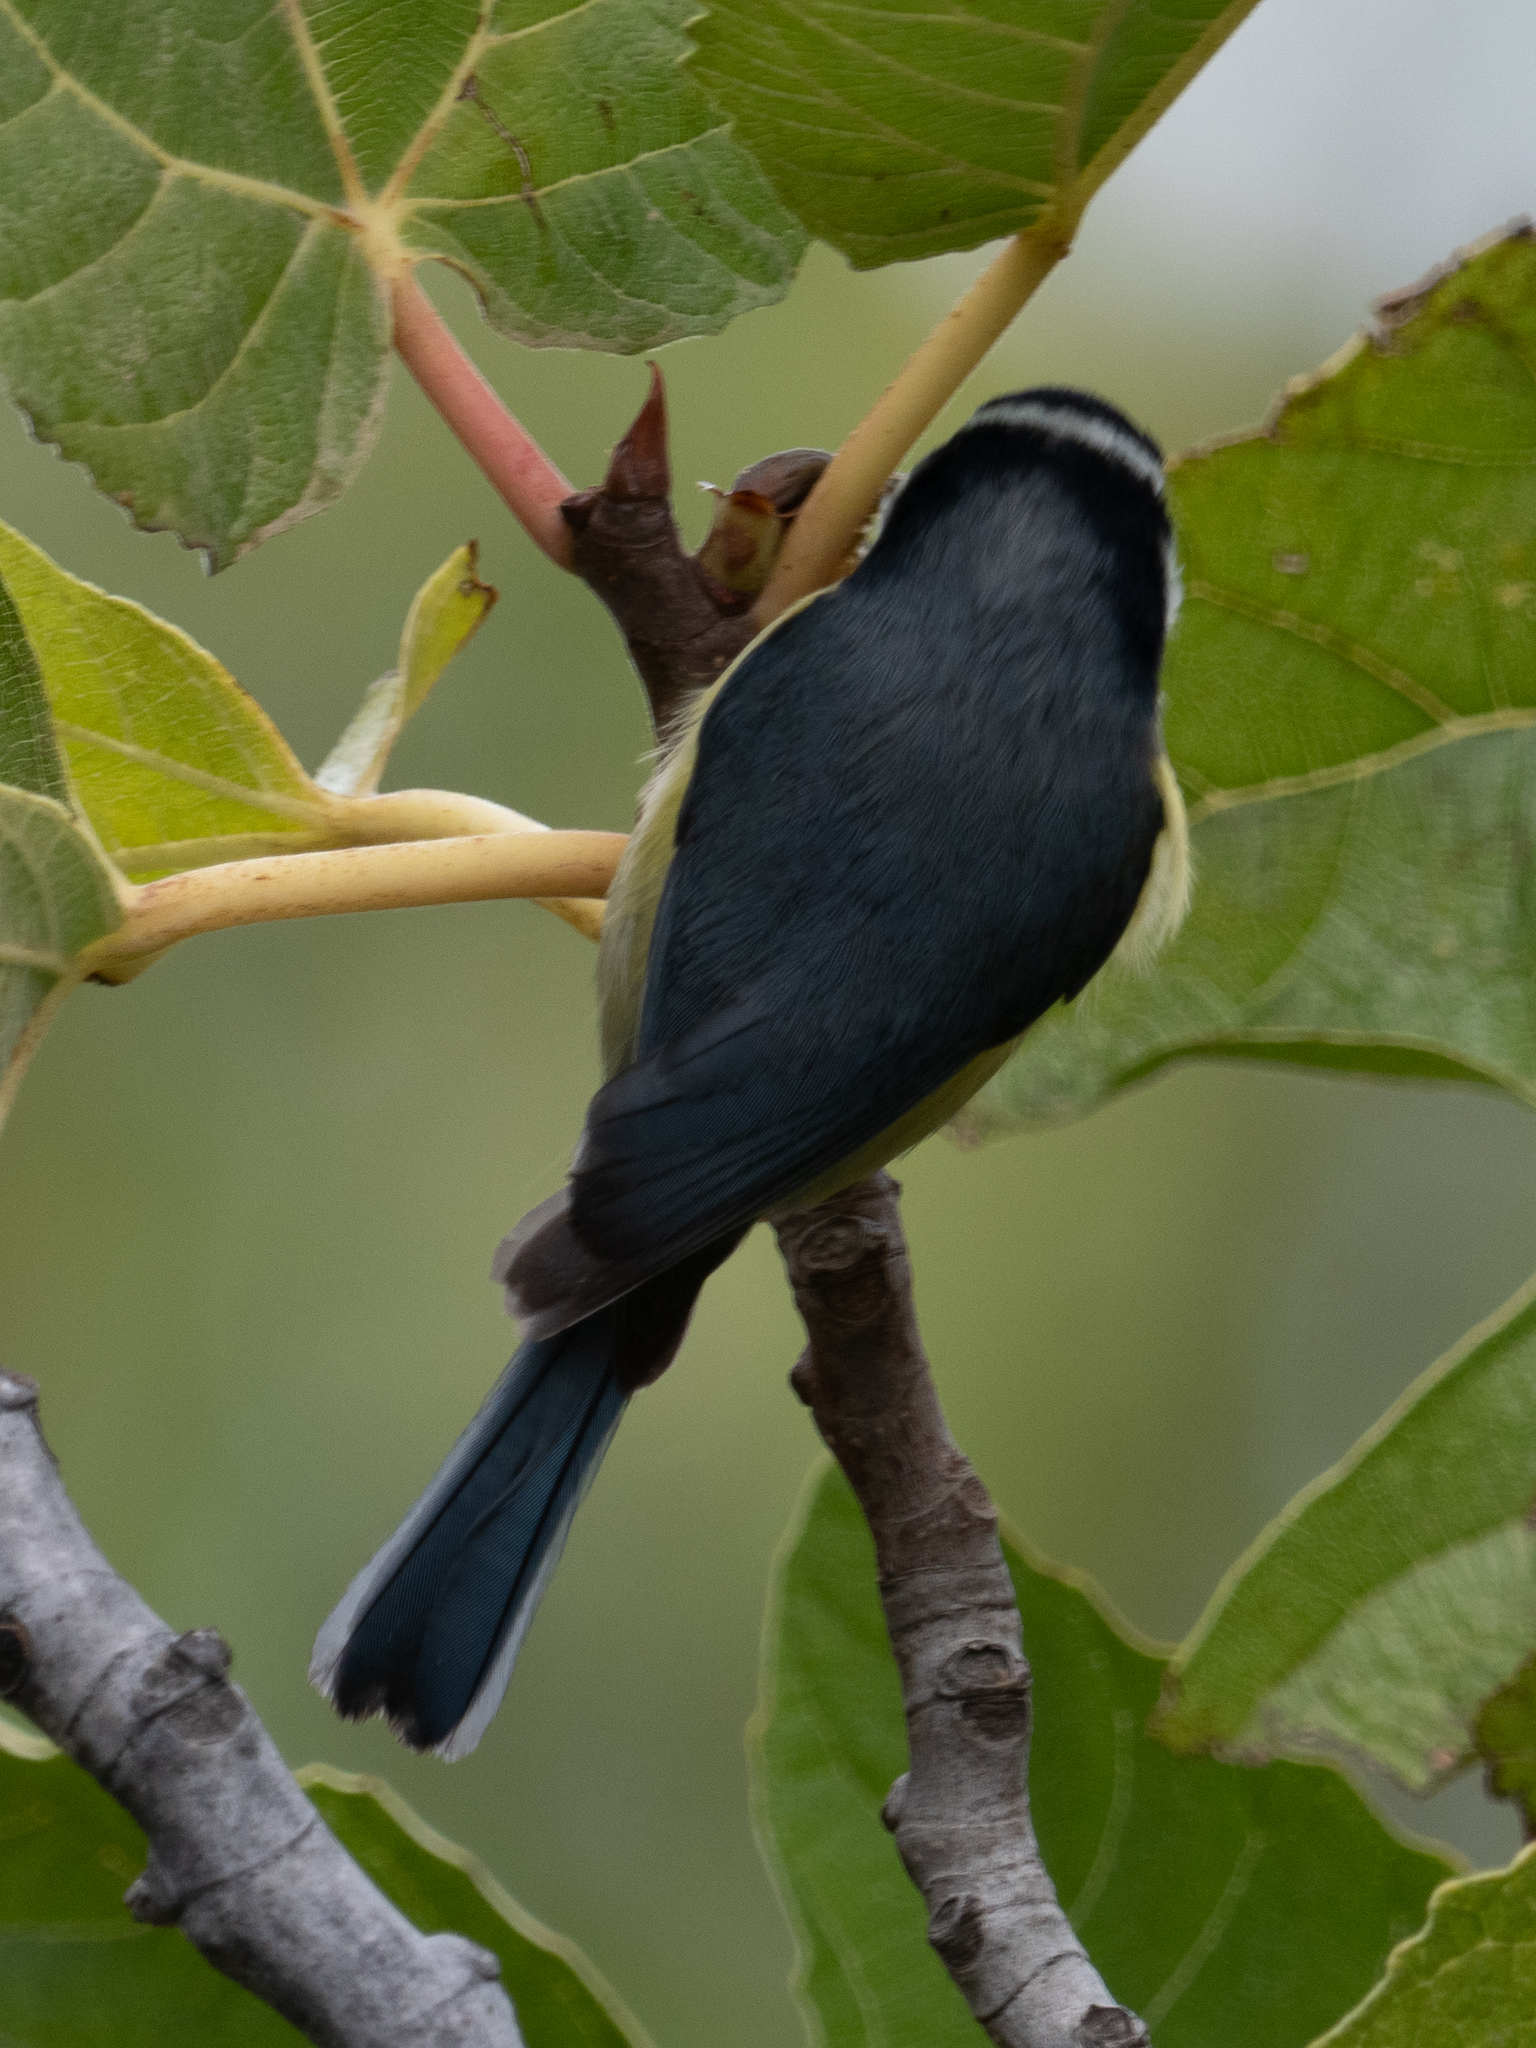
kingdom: Animalia
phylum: Chordata
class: Aves
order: Passeriformes
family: Paridae
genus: Cyanistes
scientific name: Cyanistes teneriffae
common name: African blue tit
